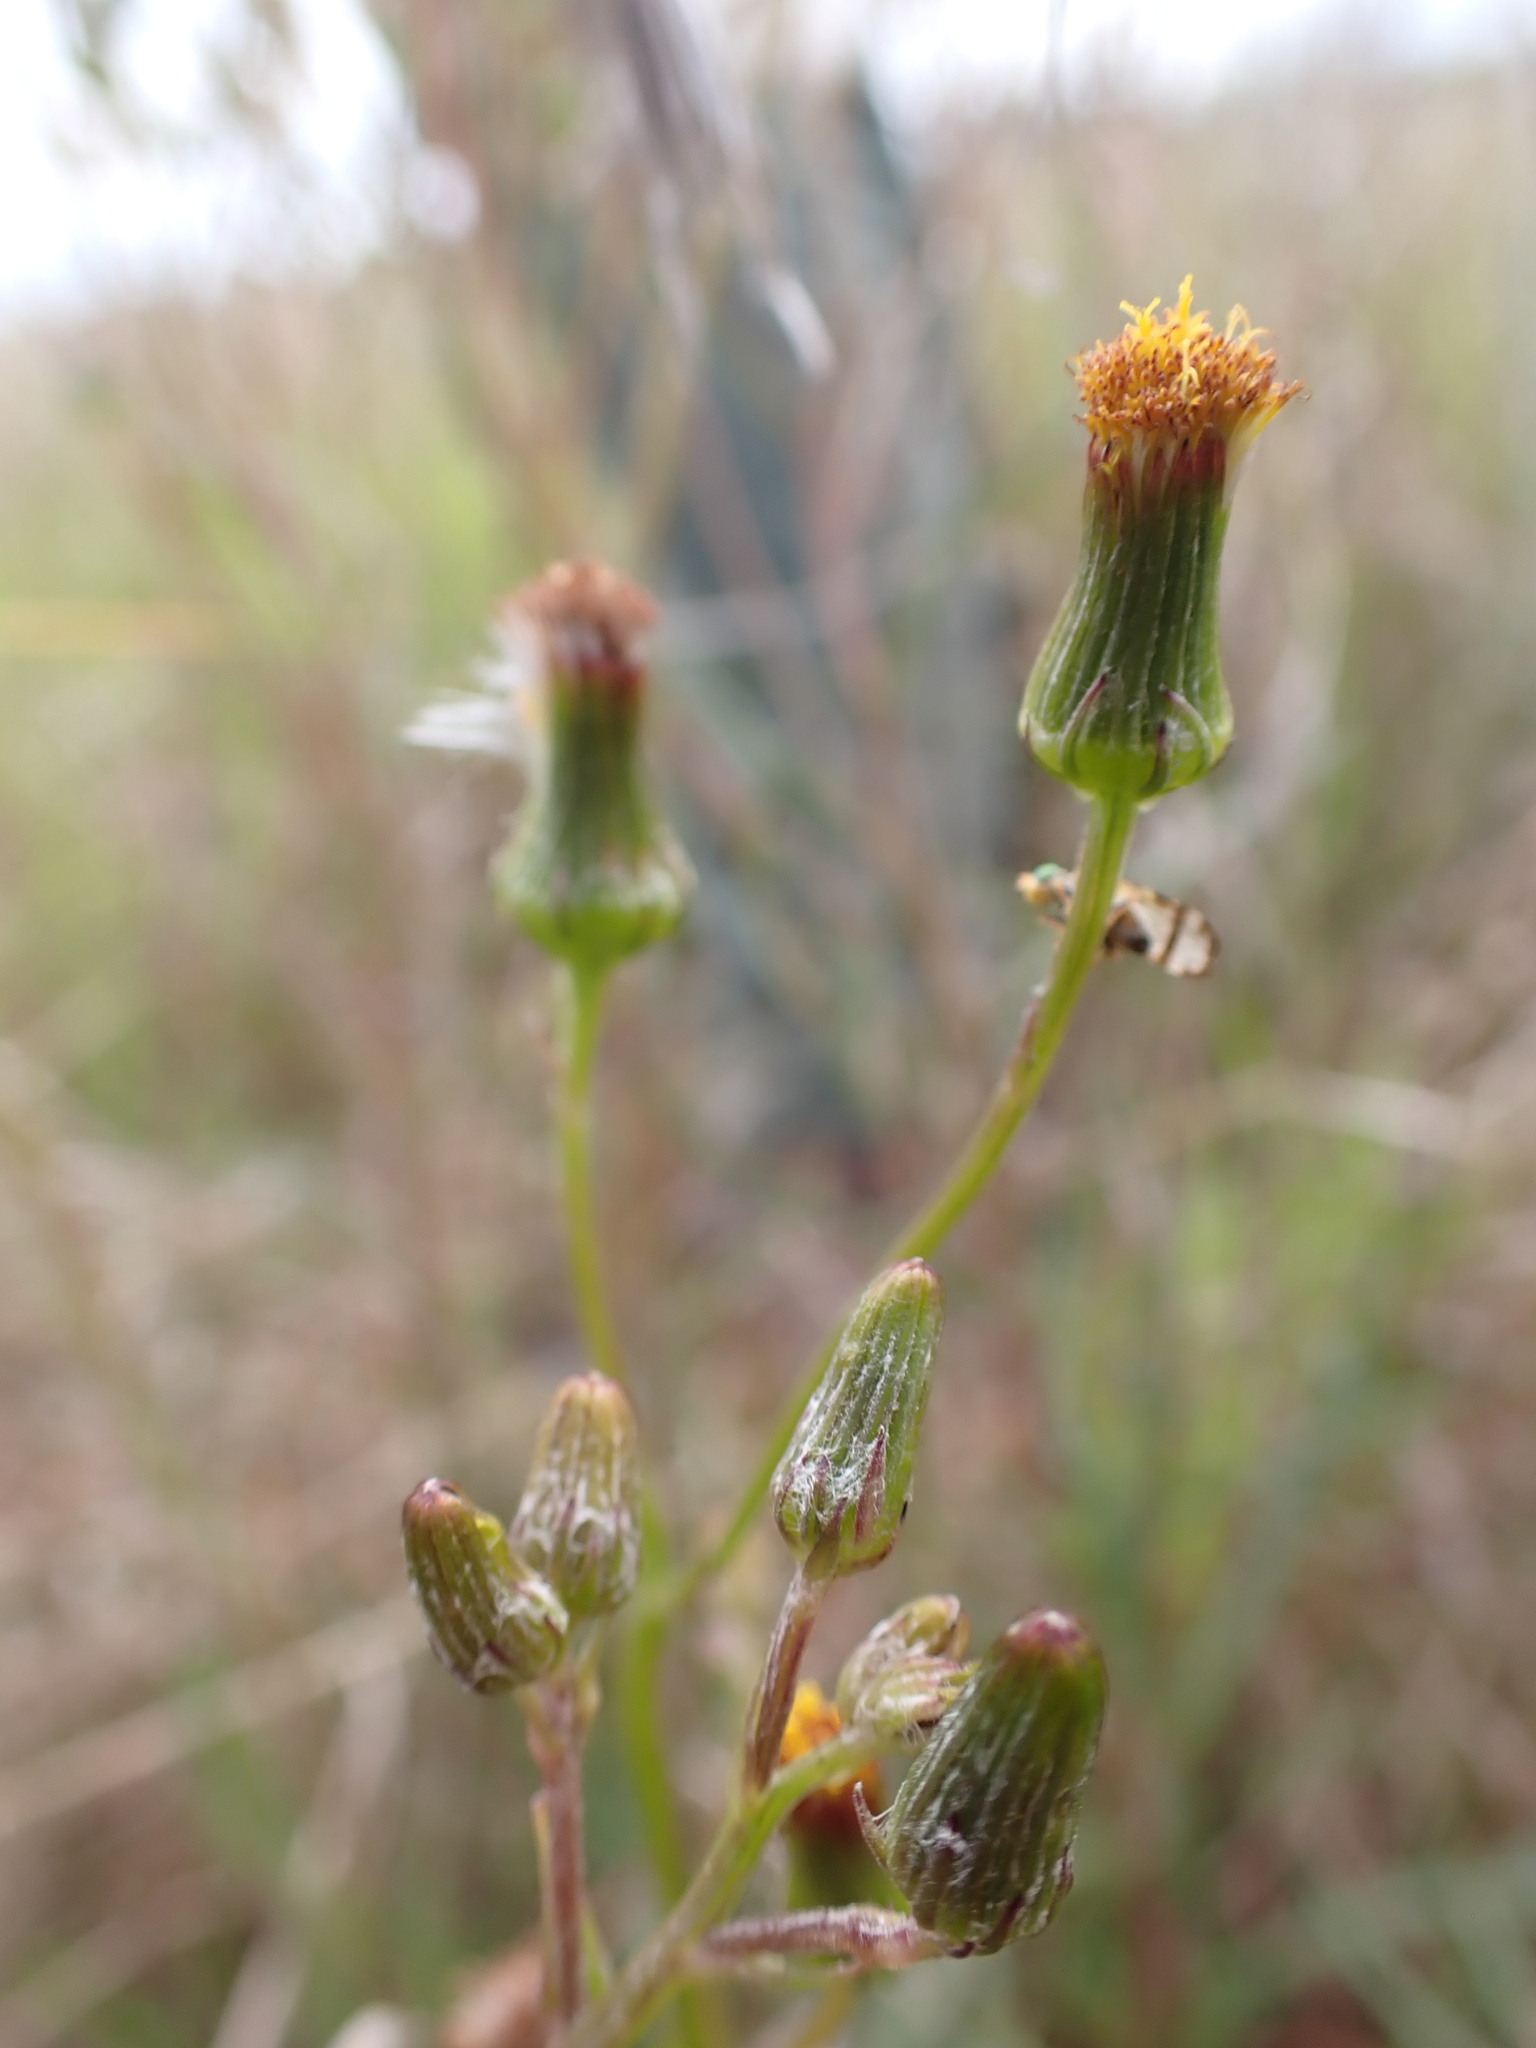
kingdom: Plantae
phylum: Tracheophyta
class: Magnoliopsida
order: Asterales
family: Asteraceae
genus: Senecio
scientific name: Senecio macrocarpus
